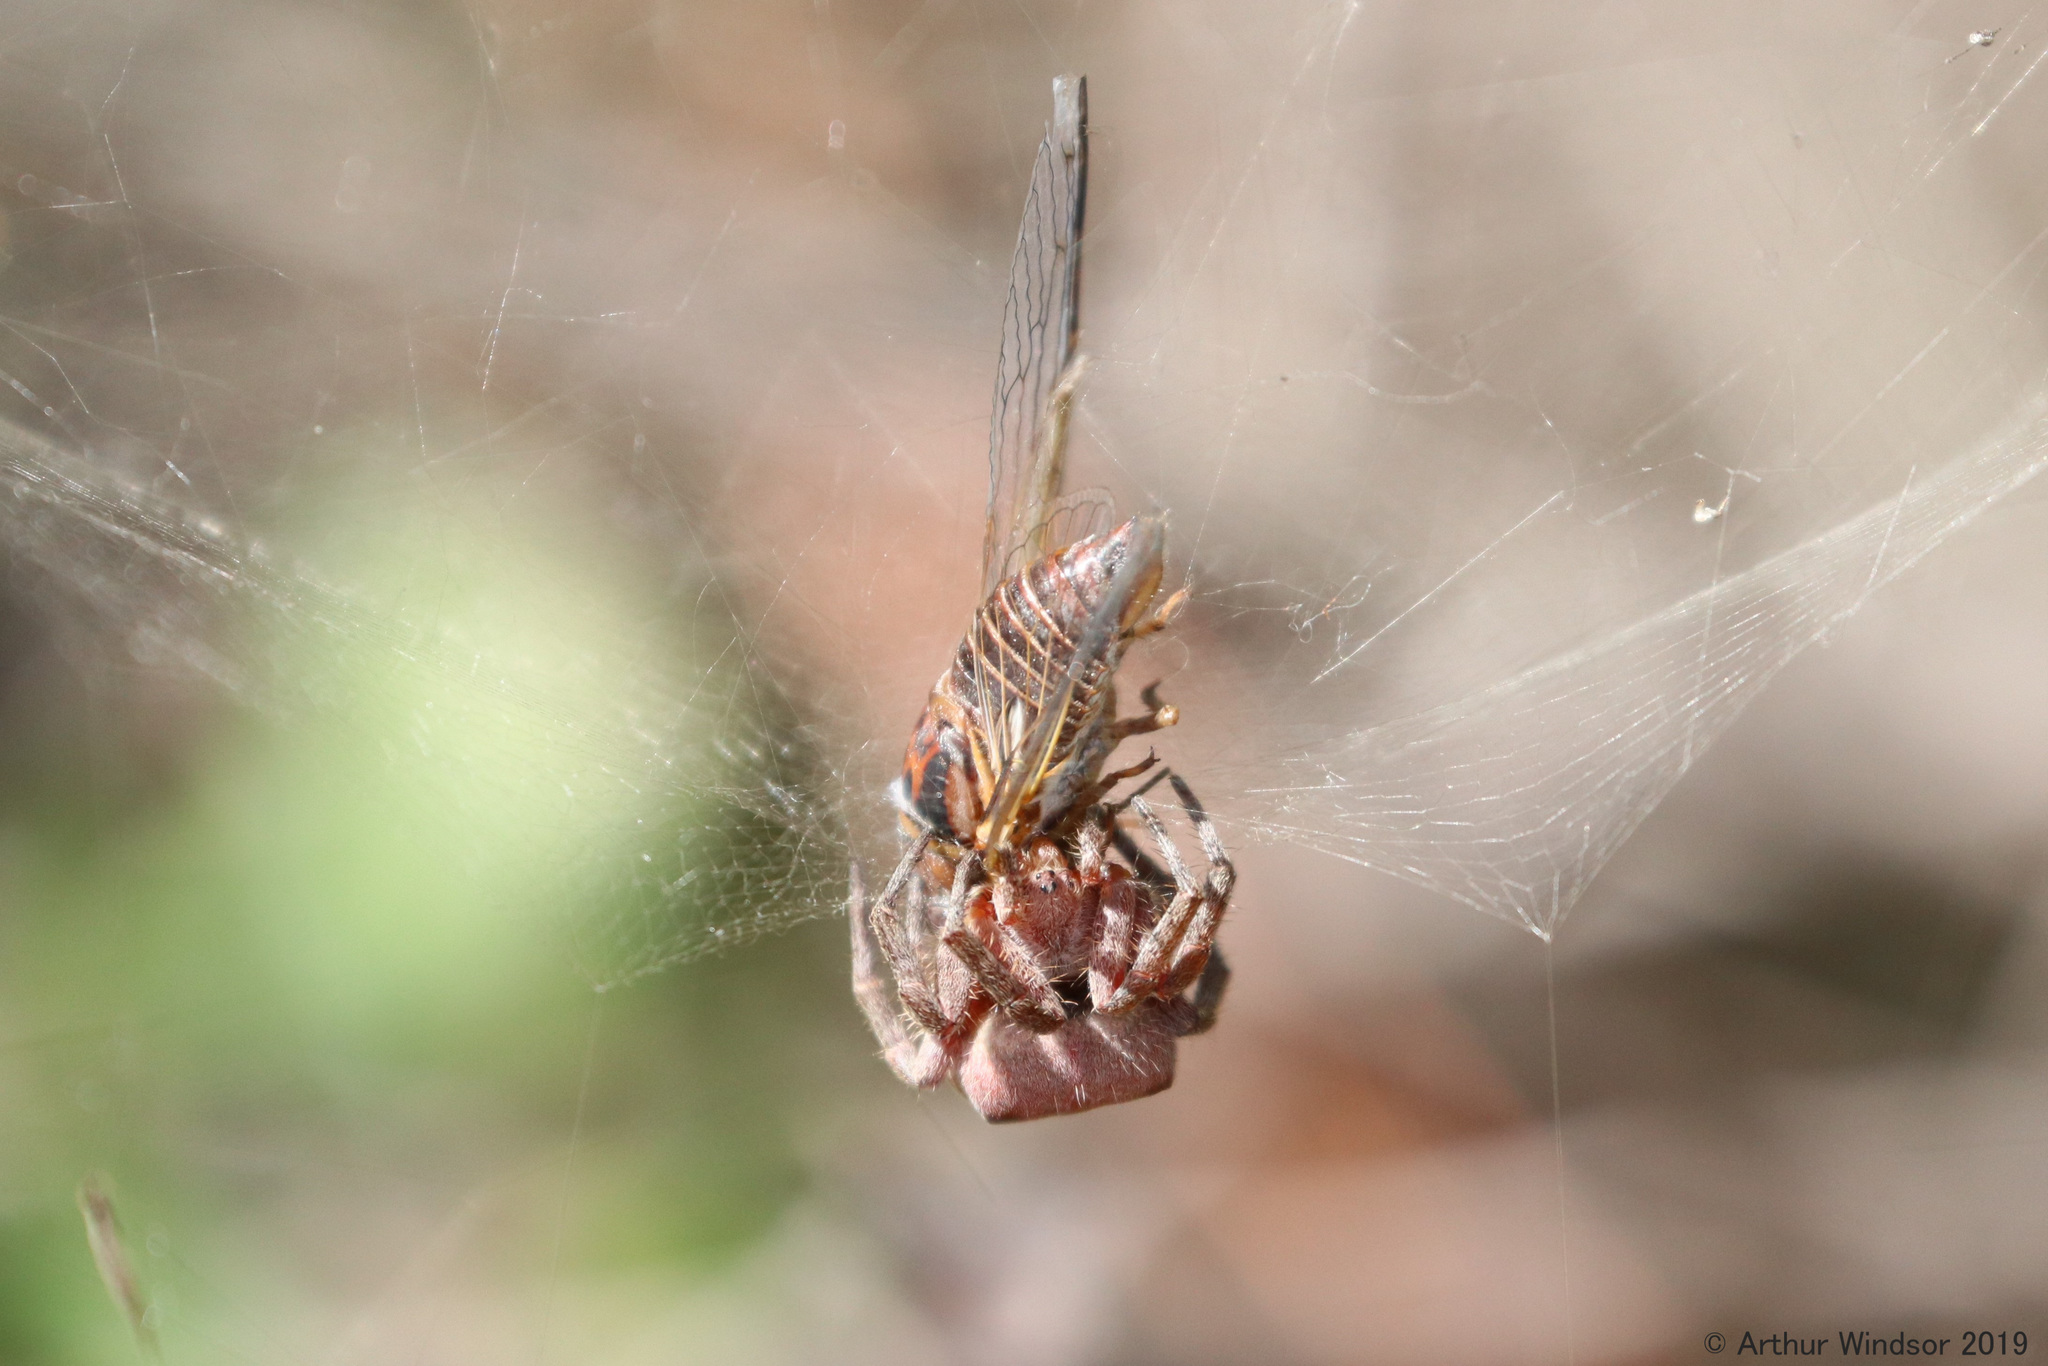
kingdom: Animalia
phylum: Arthropoda
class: Arachnida
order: Araneae
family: Araneidae
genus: Cyrtophora
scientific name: Cyrtophora citricola
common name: Orb weavers
